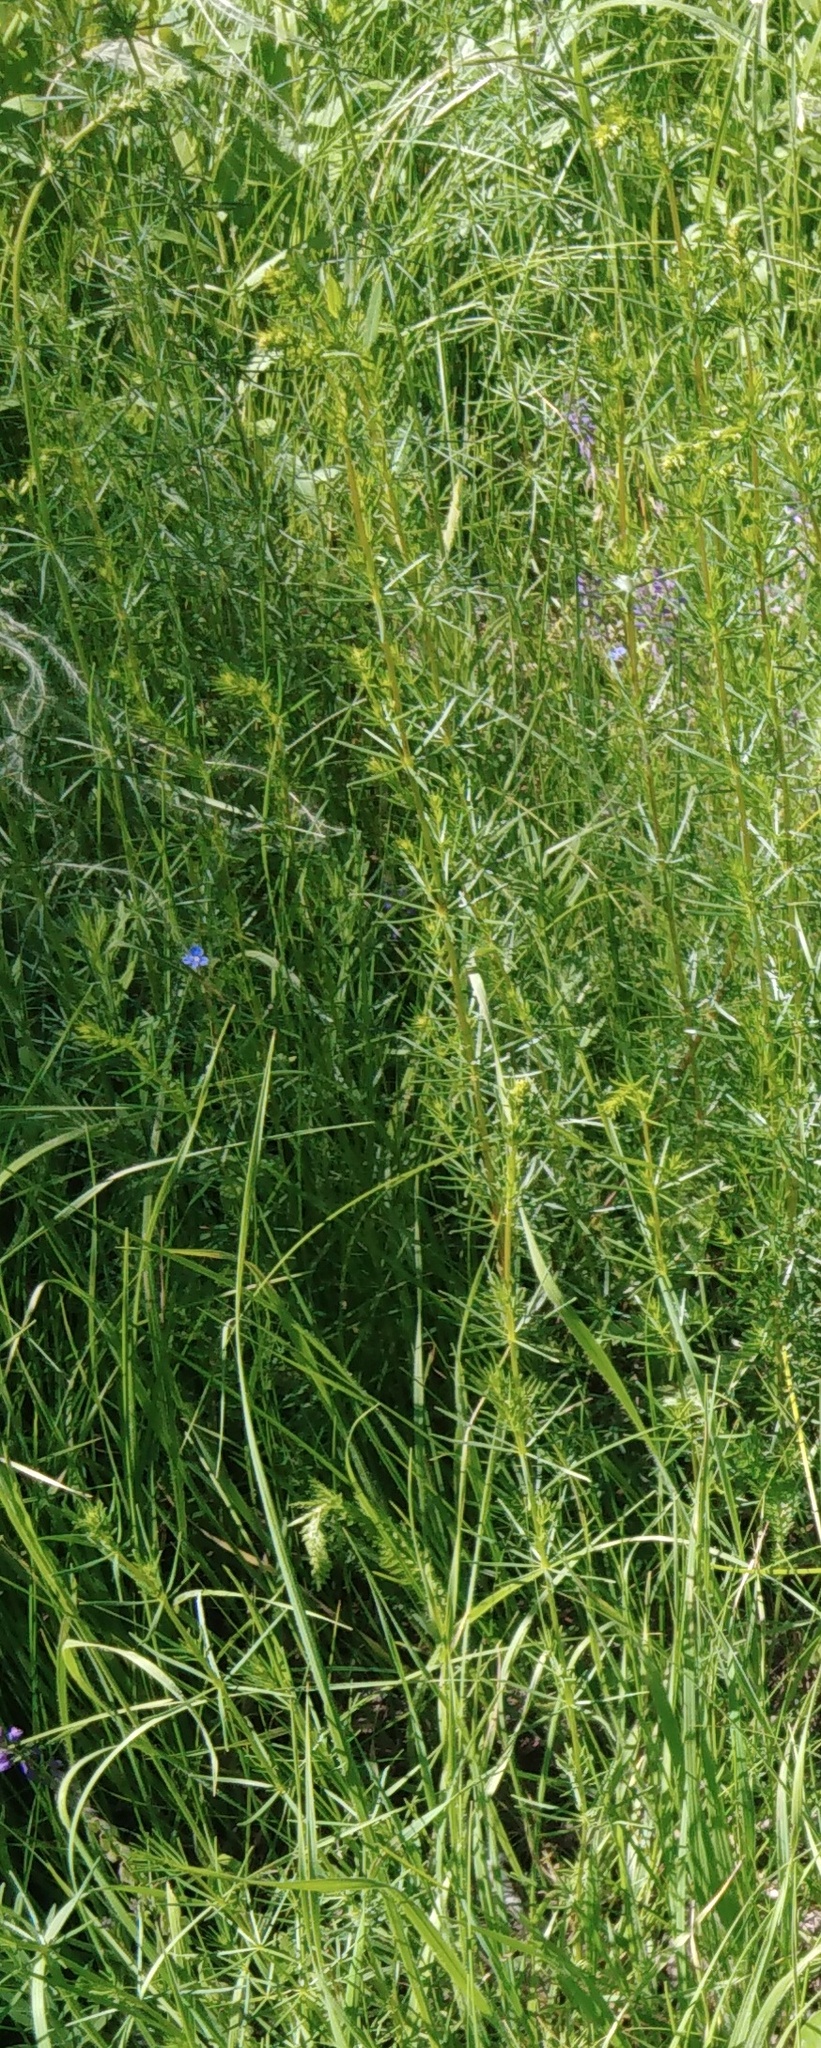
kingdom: Plantae
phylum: Tracheophyta
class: Magnoliopsida
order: Gentianales
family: Rubiaceae
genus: Galium
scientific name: Galium verum
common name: Lady's bedstraw
